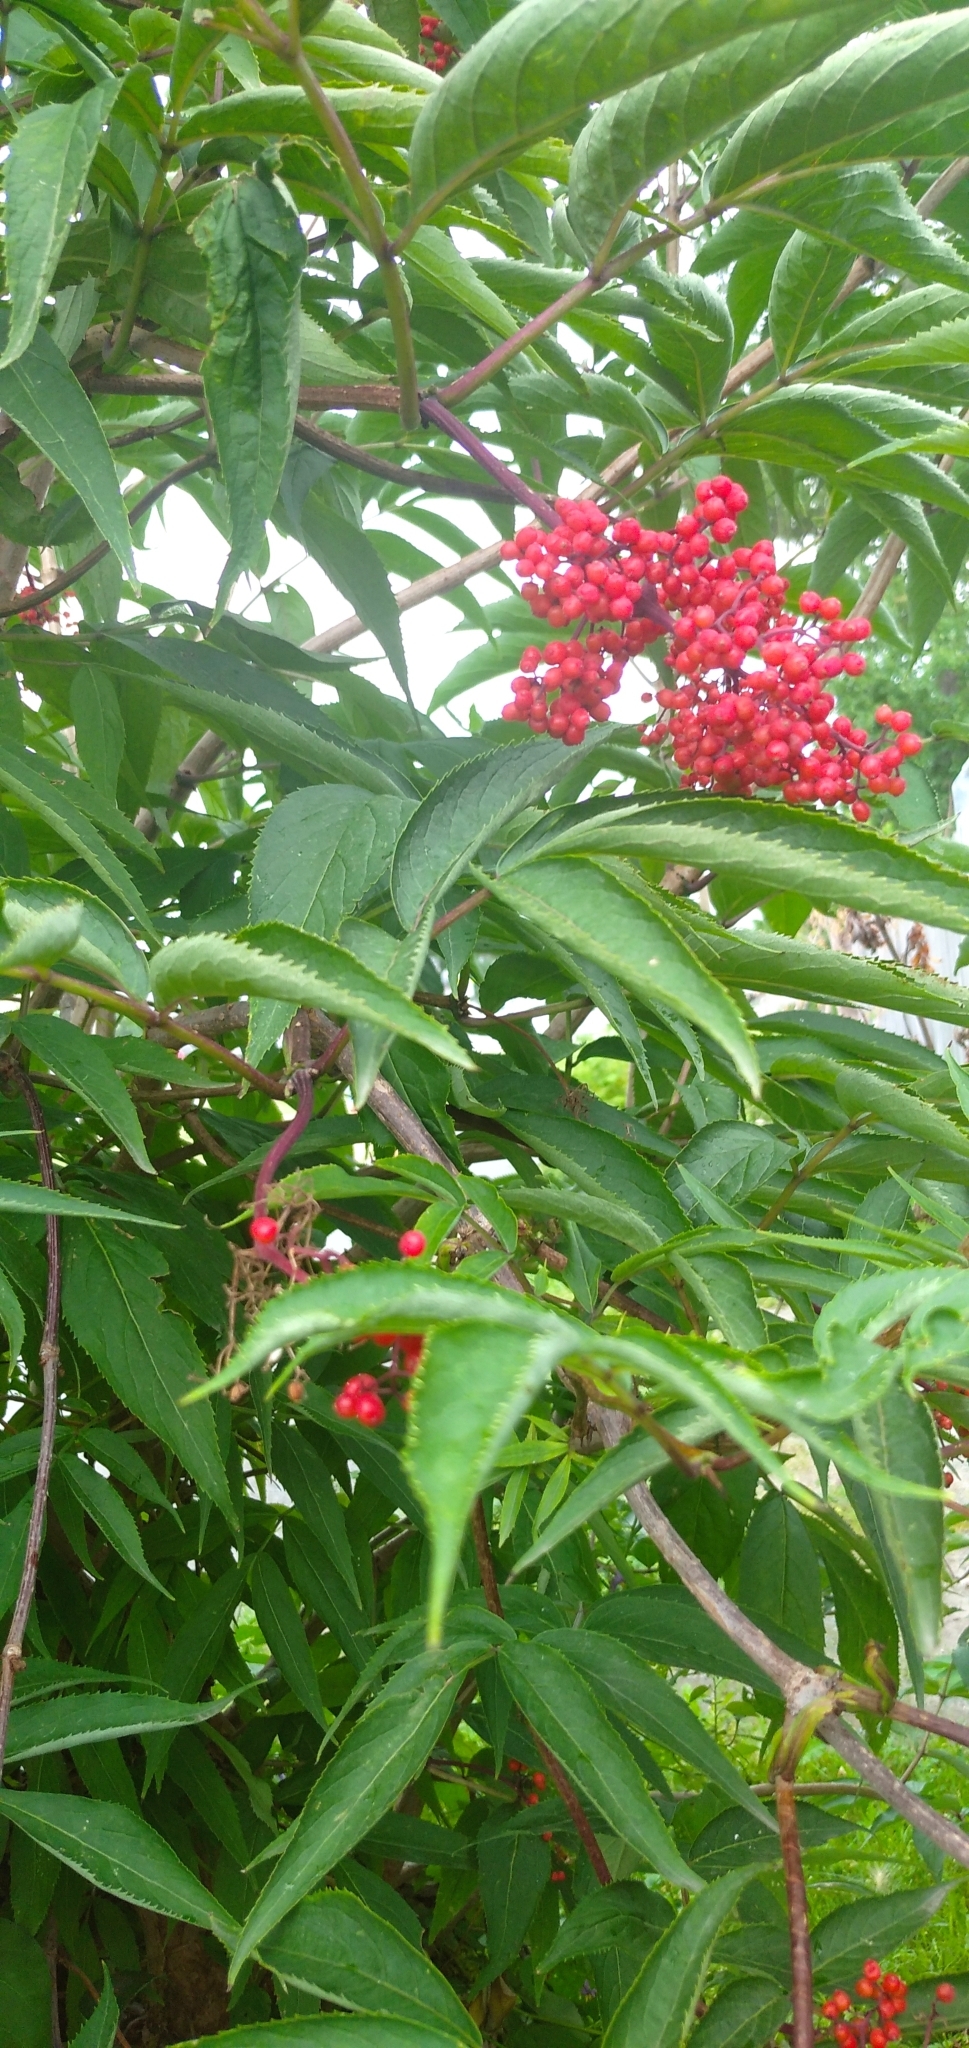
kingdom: Plantae
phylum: Tracheophyta
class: Magnoliopsida
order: Dipsacales
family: Viburnaceae
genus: Sambucus
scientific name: Sambucus racemosa
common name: Red-berried elder
